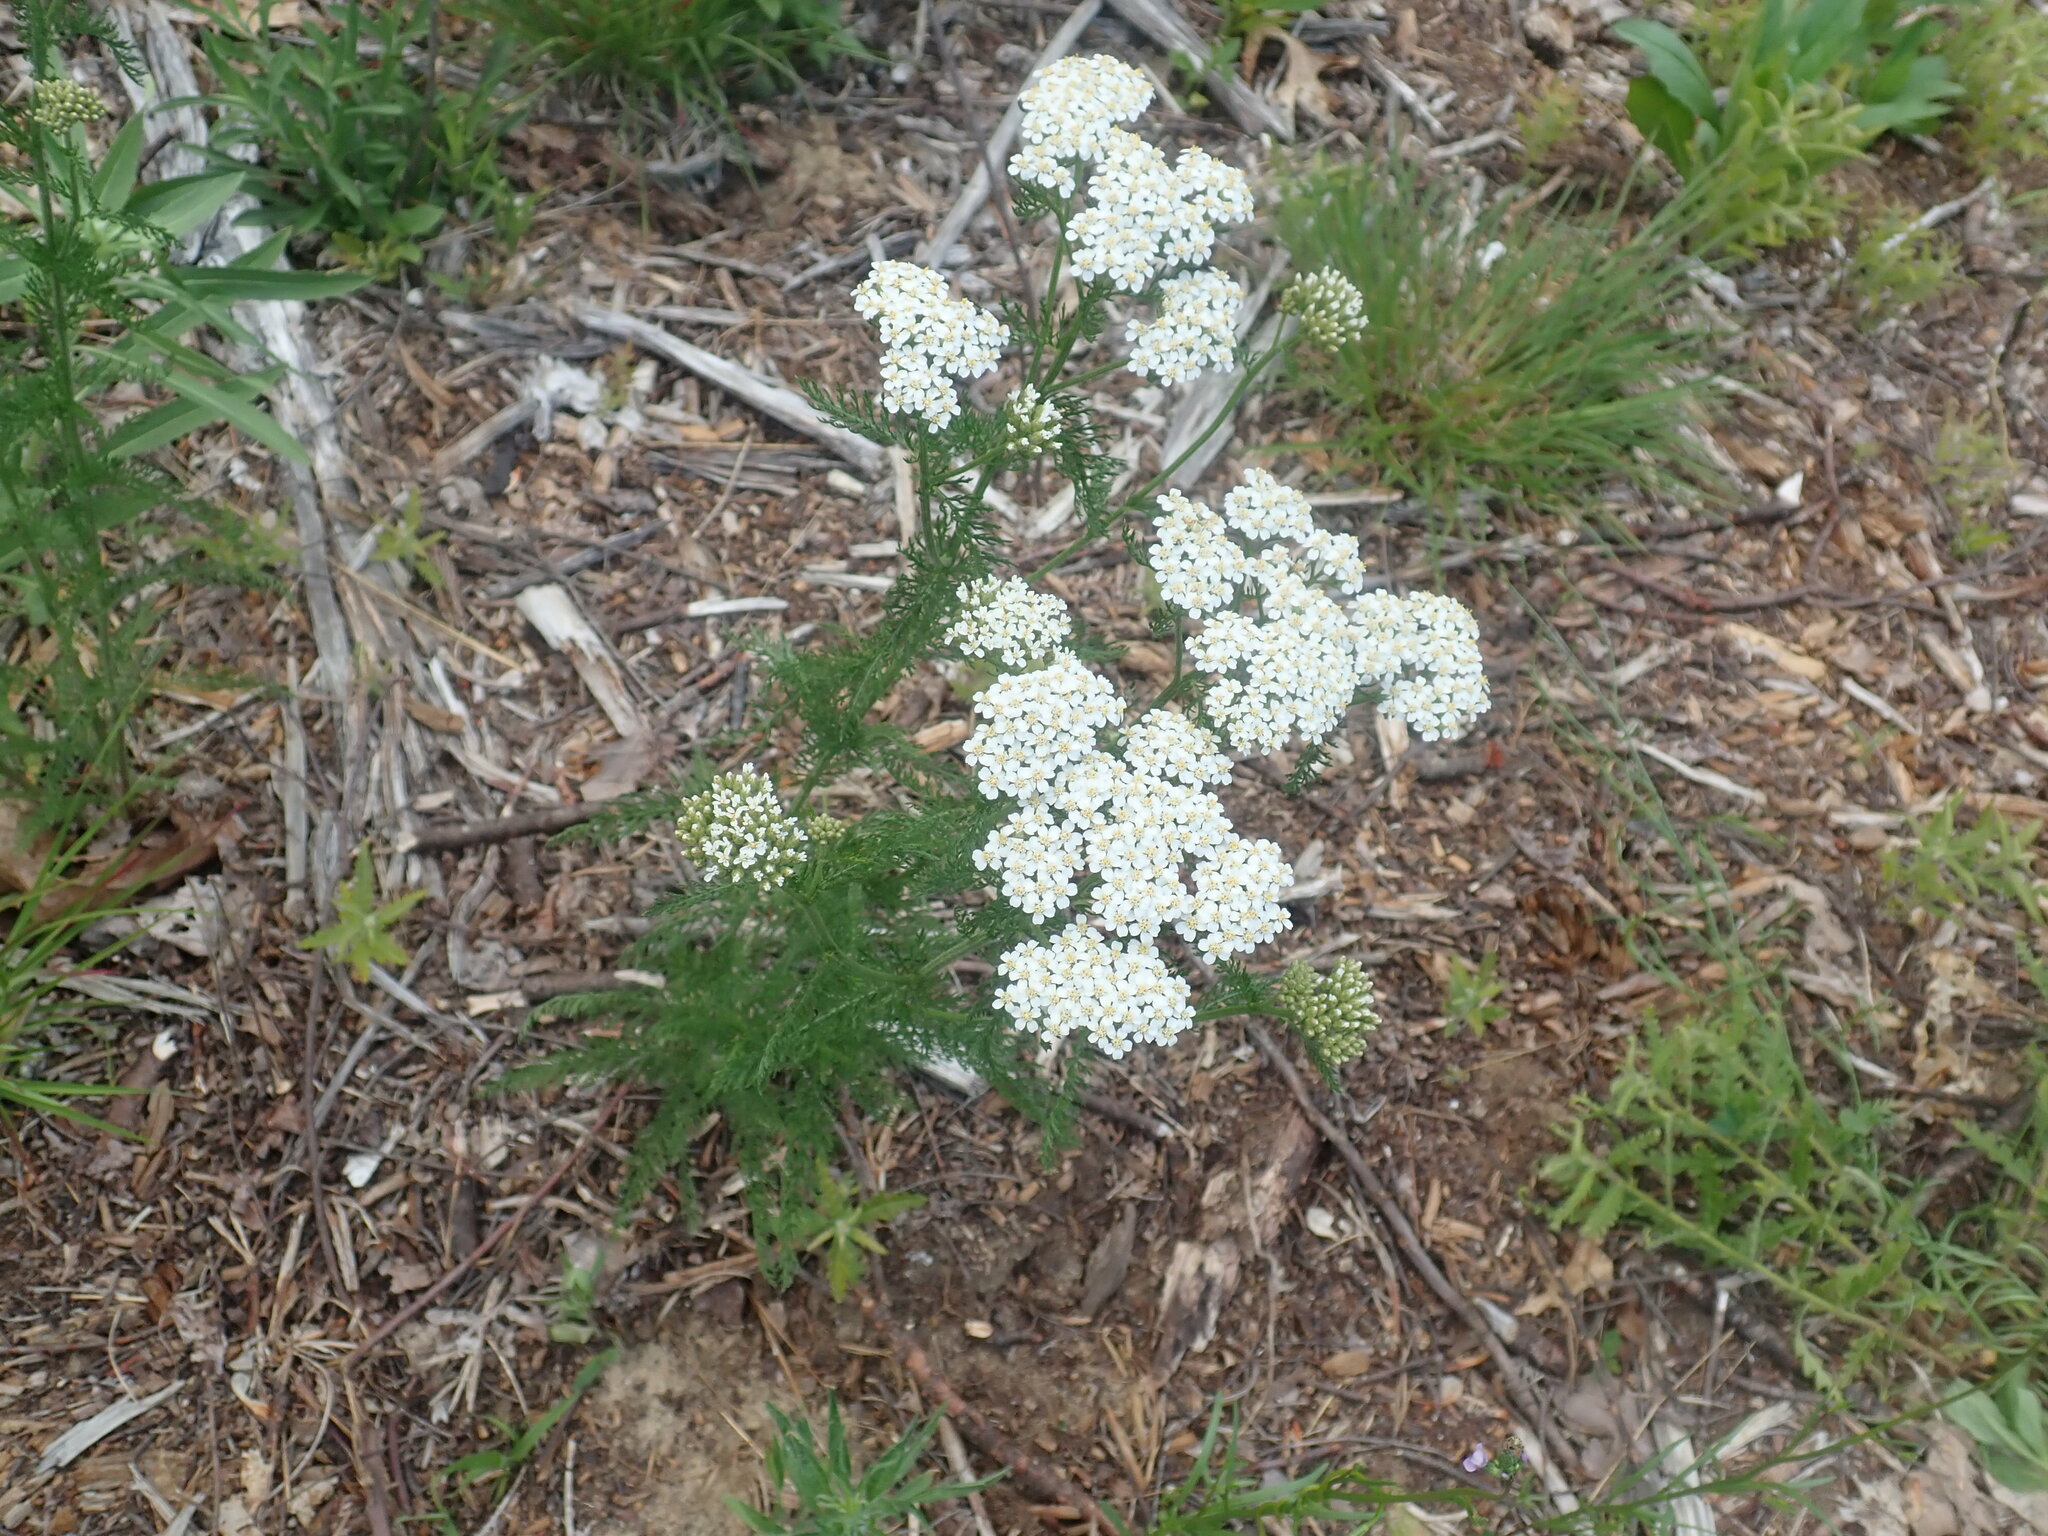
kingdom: Plantae
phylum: Tracheophyta
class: Magnoliopsida
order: Asterales
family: Asteraceae
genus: Achillea
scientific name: Achillea millefolium
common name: Yarrow
